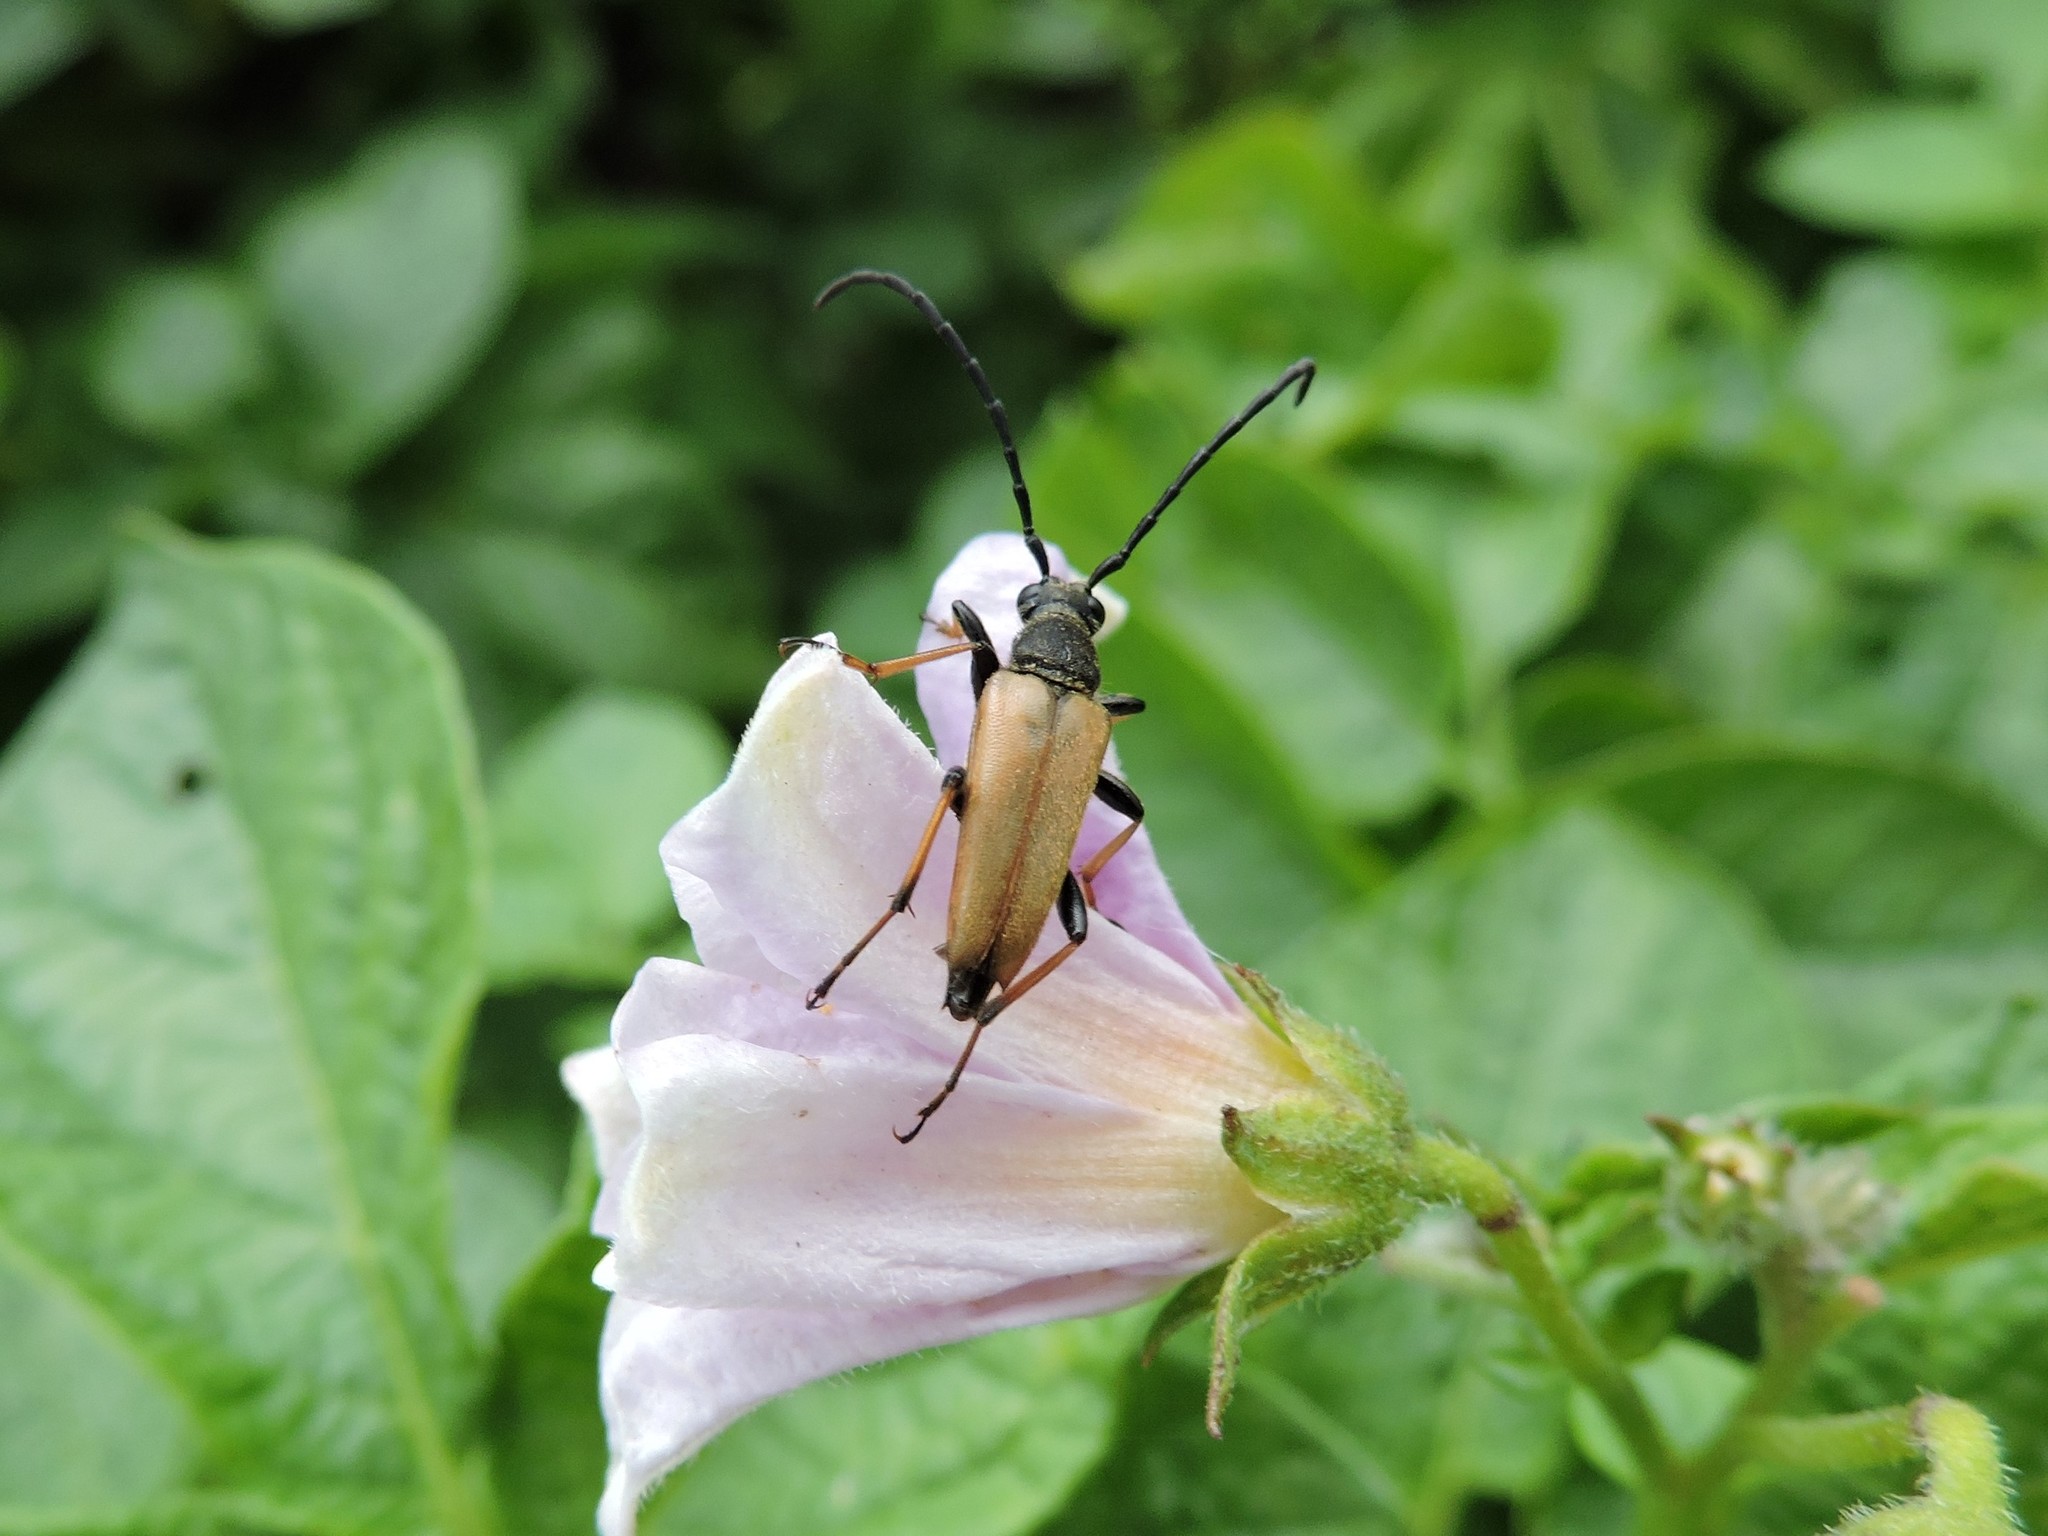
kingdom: Animalia
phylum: Arthropoda
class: Insecta
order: Coleoptera
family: Cerambycidae
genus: Stictoleptura
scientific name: Stictoleptura rubra
